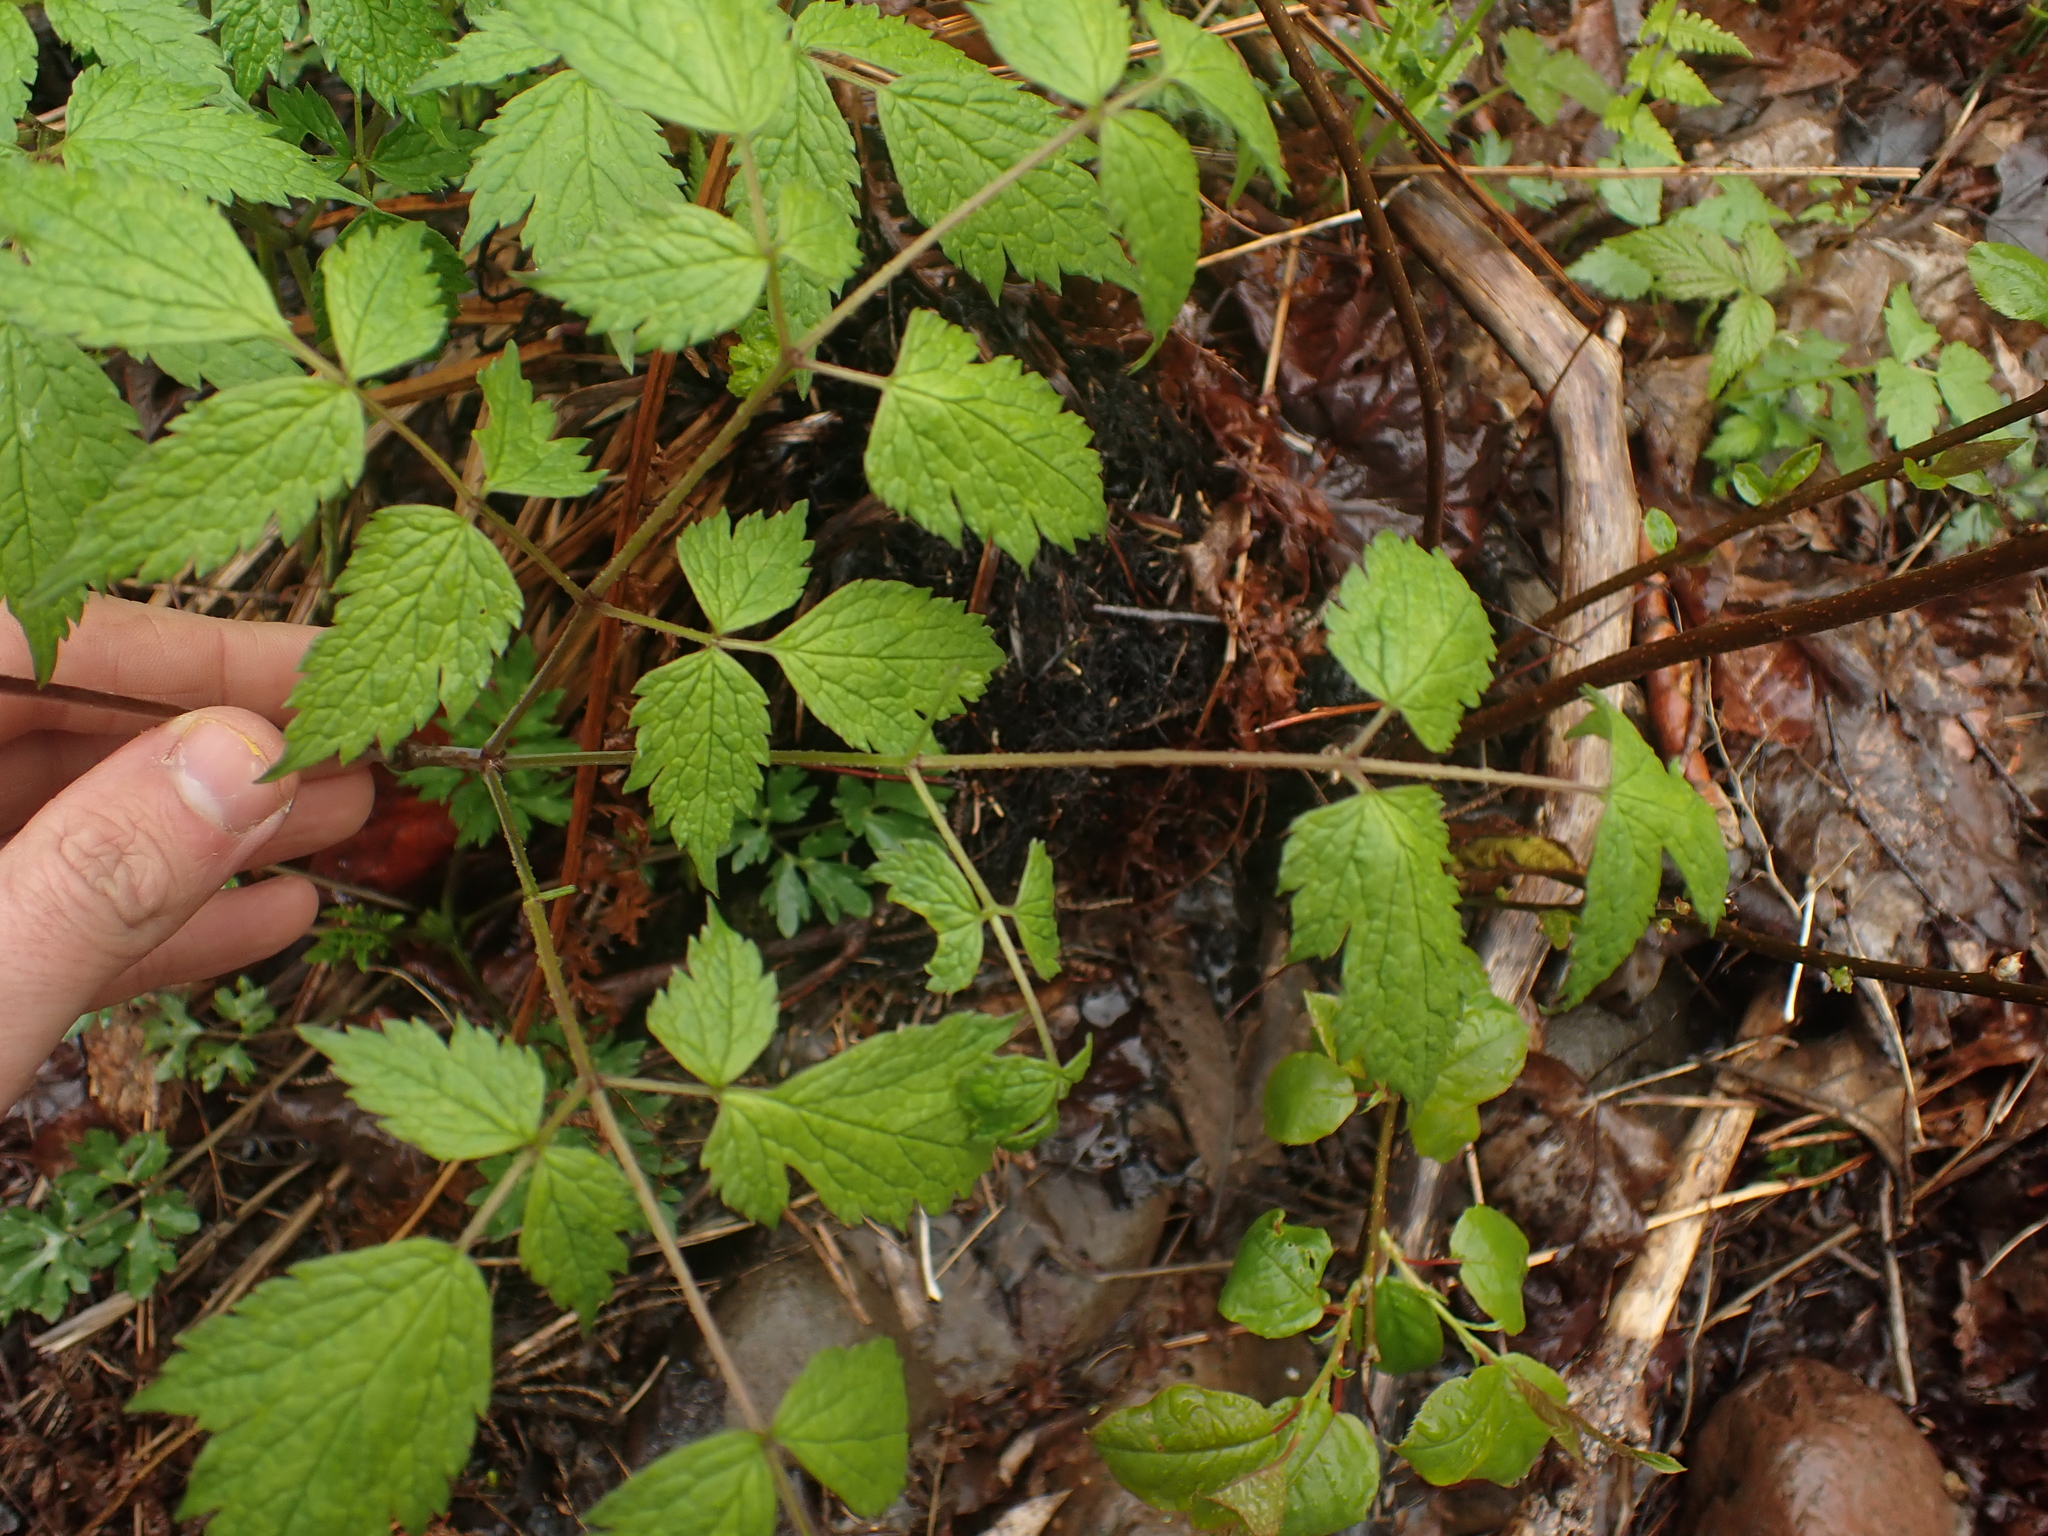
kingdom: Plantae
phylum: Tracheophyta
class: Magnoliopsida
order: Ranunculales
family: Ranunculaceae
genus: Actaea
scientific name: Actaea rubra
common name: Red baneberry
